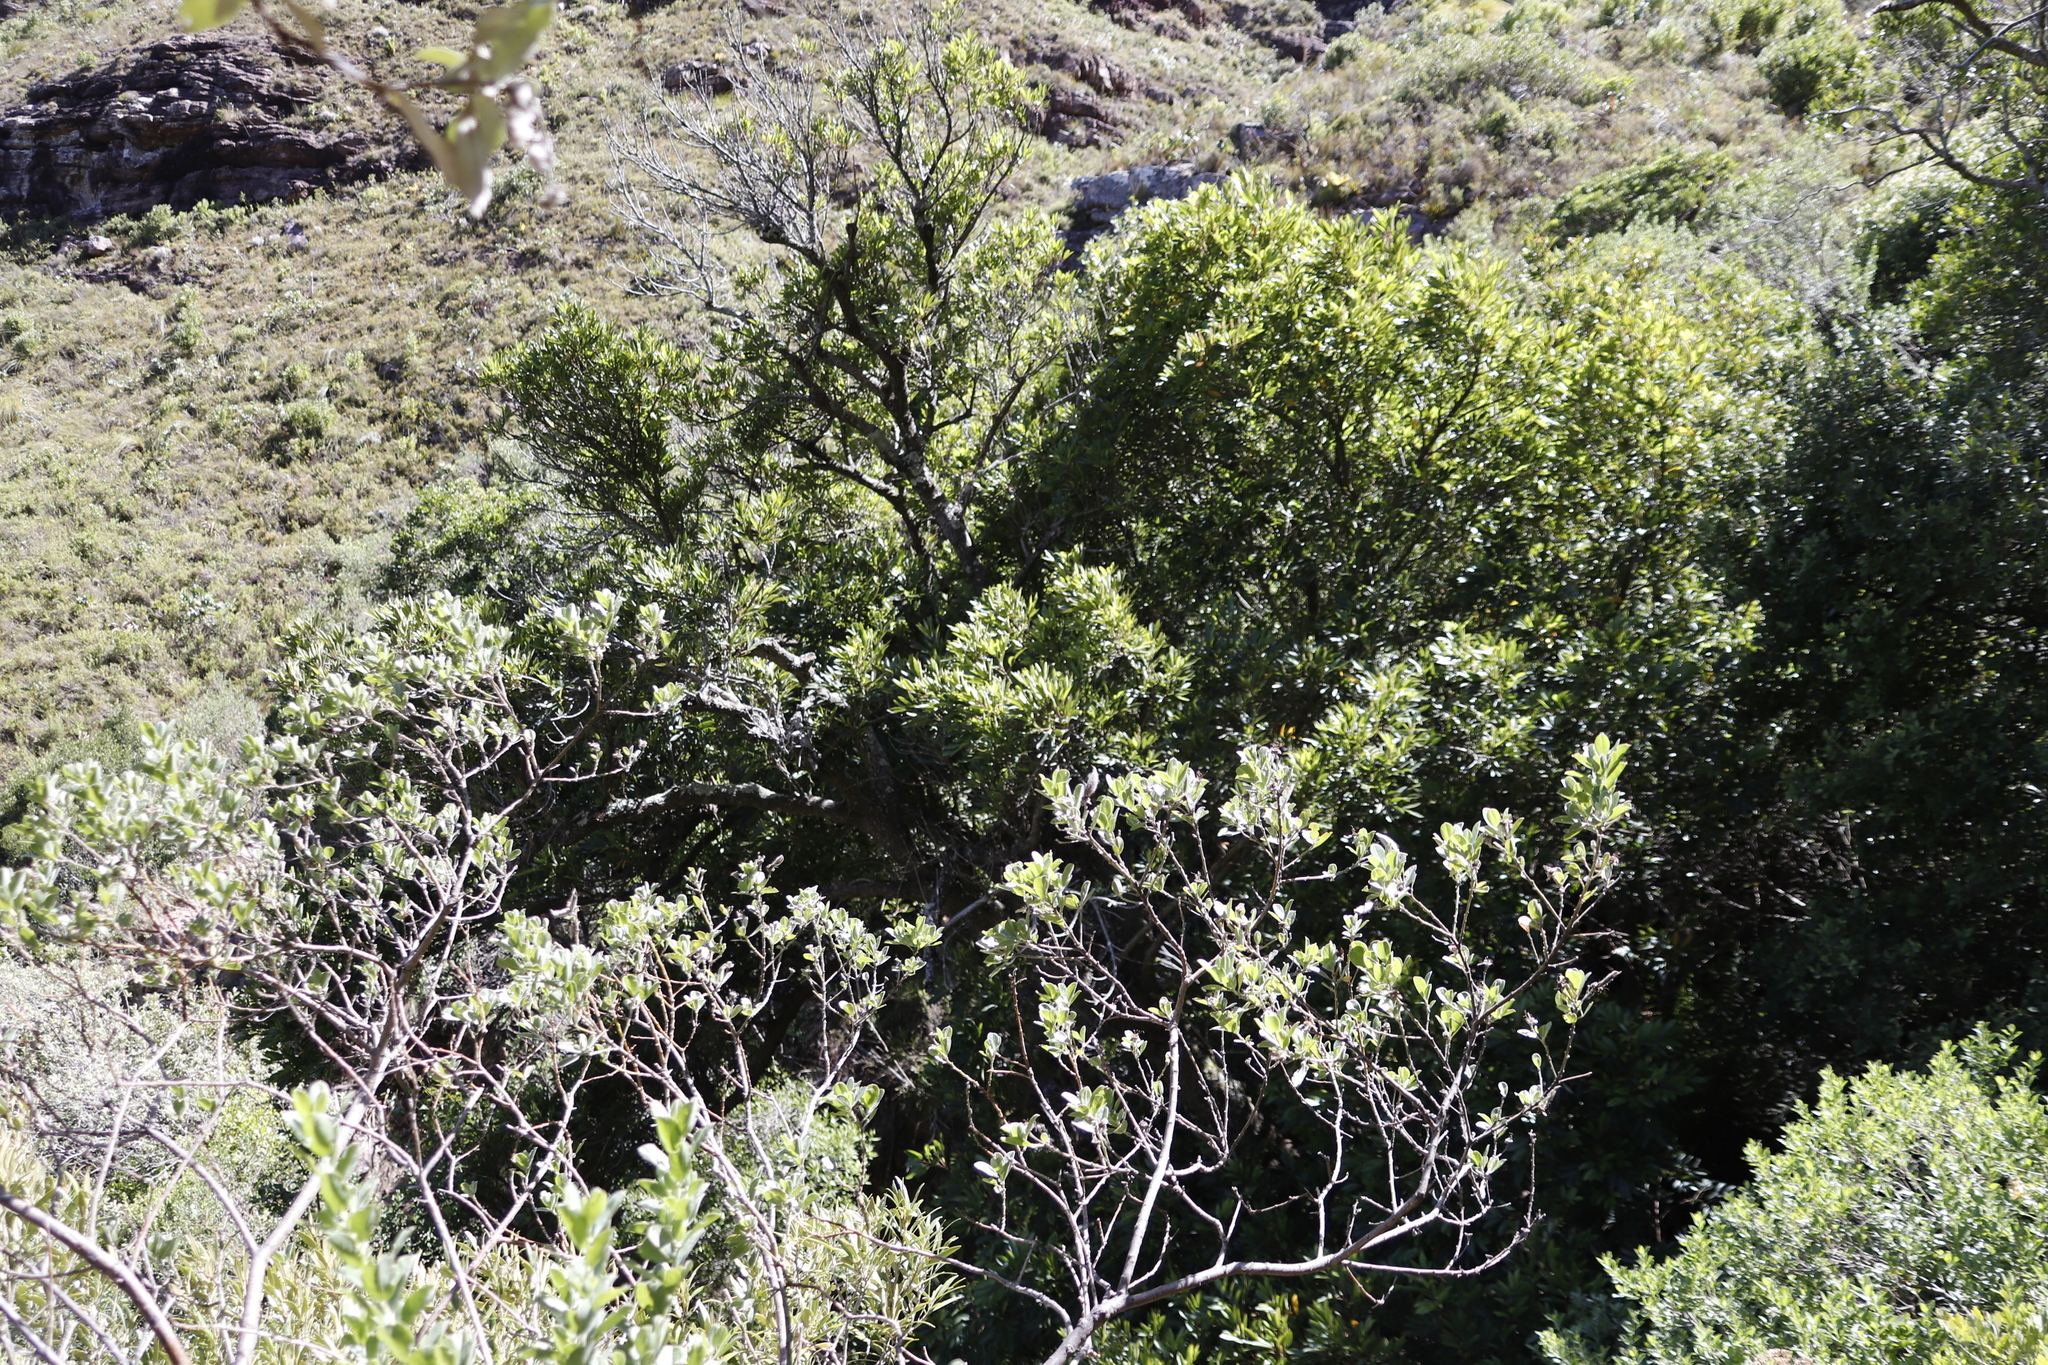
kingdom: Plantae
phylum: Tracheophyta
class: Magnoliopsida
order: Oxalidales
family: Cunoniaceae
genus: Cunonia
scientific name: Cunonia capensis
